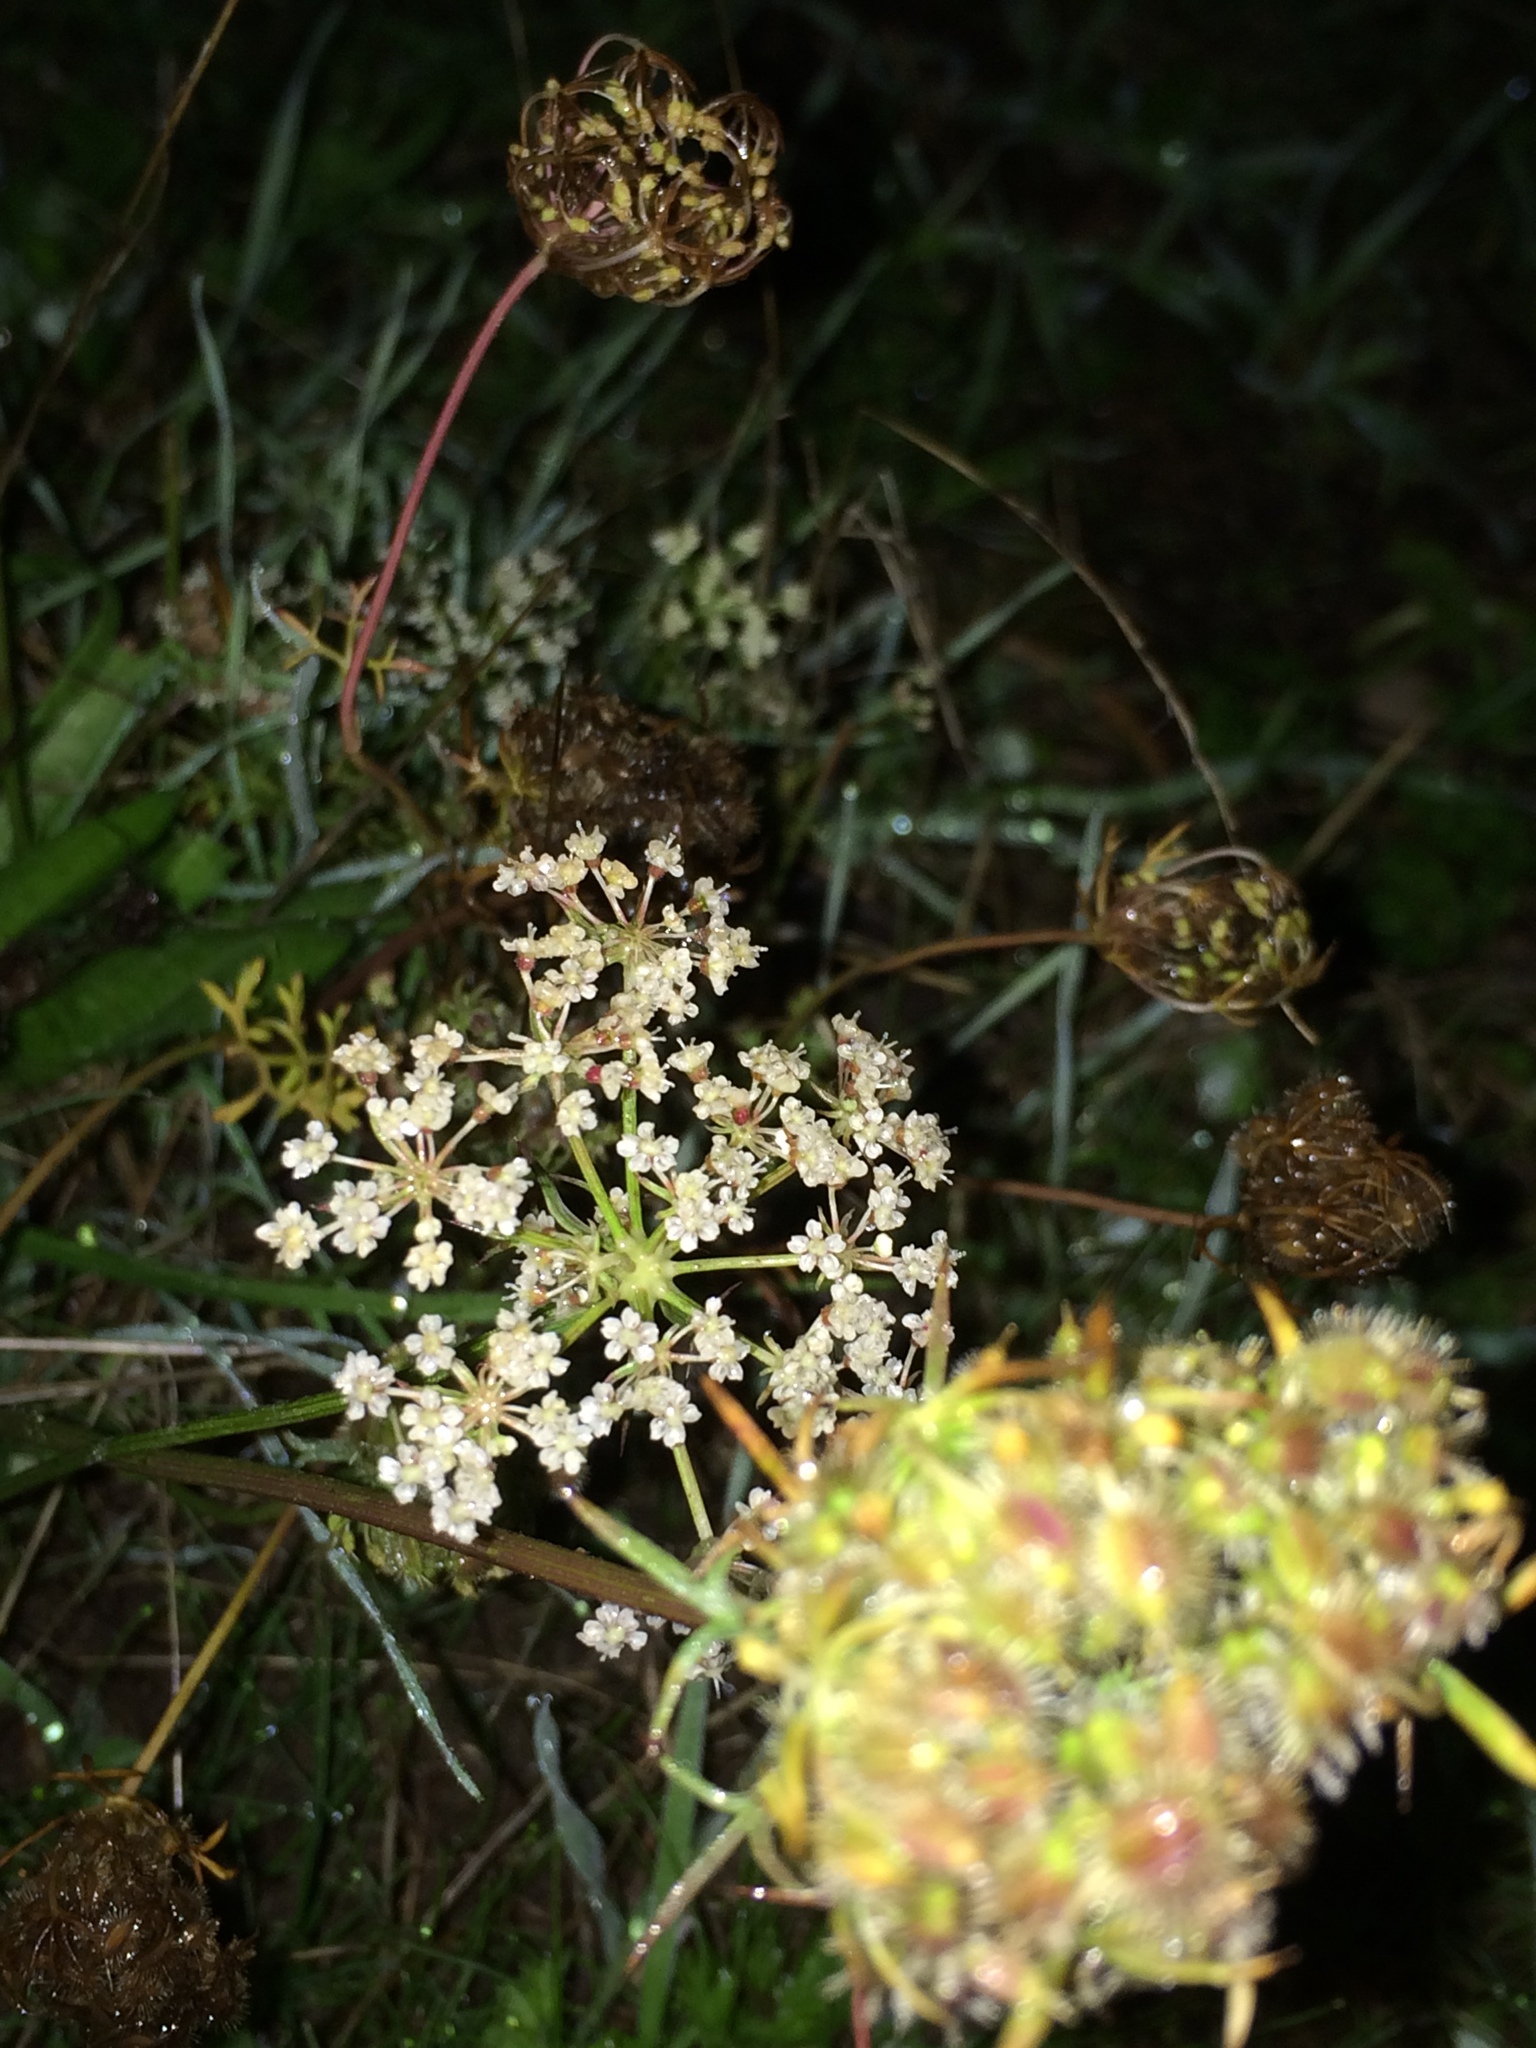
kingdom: Plantae
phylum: Tracheophyta
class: Magnoliopsida
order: Apiales
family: Apiaceae
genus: Daucus
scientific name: Daucus carota
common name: Wild carrot
